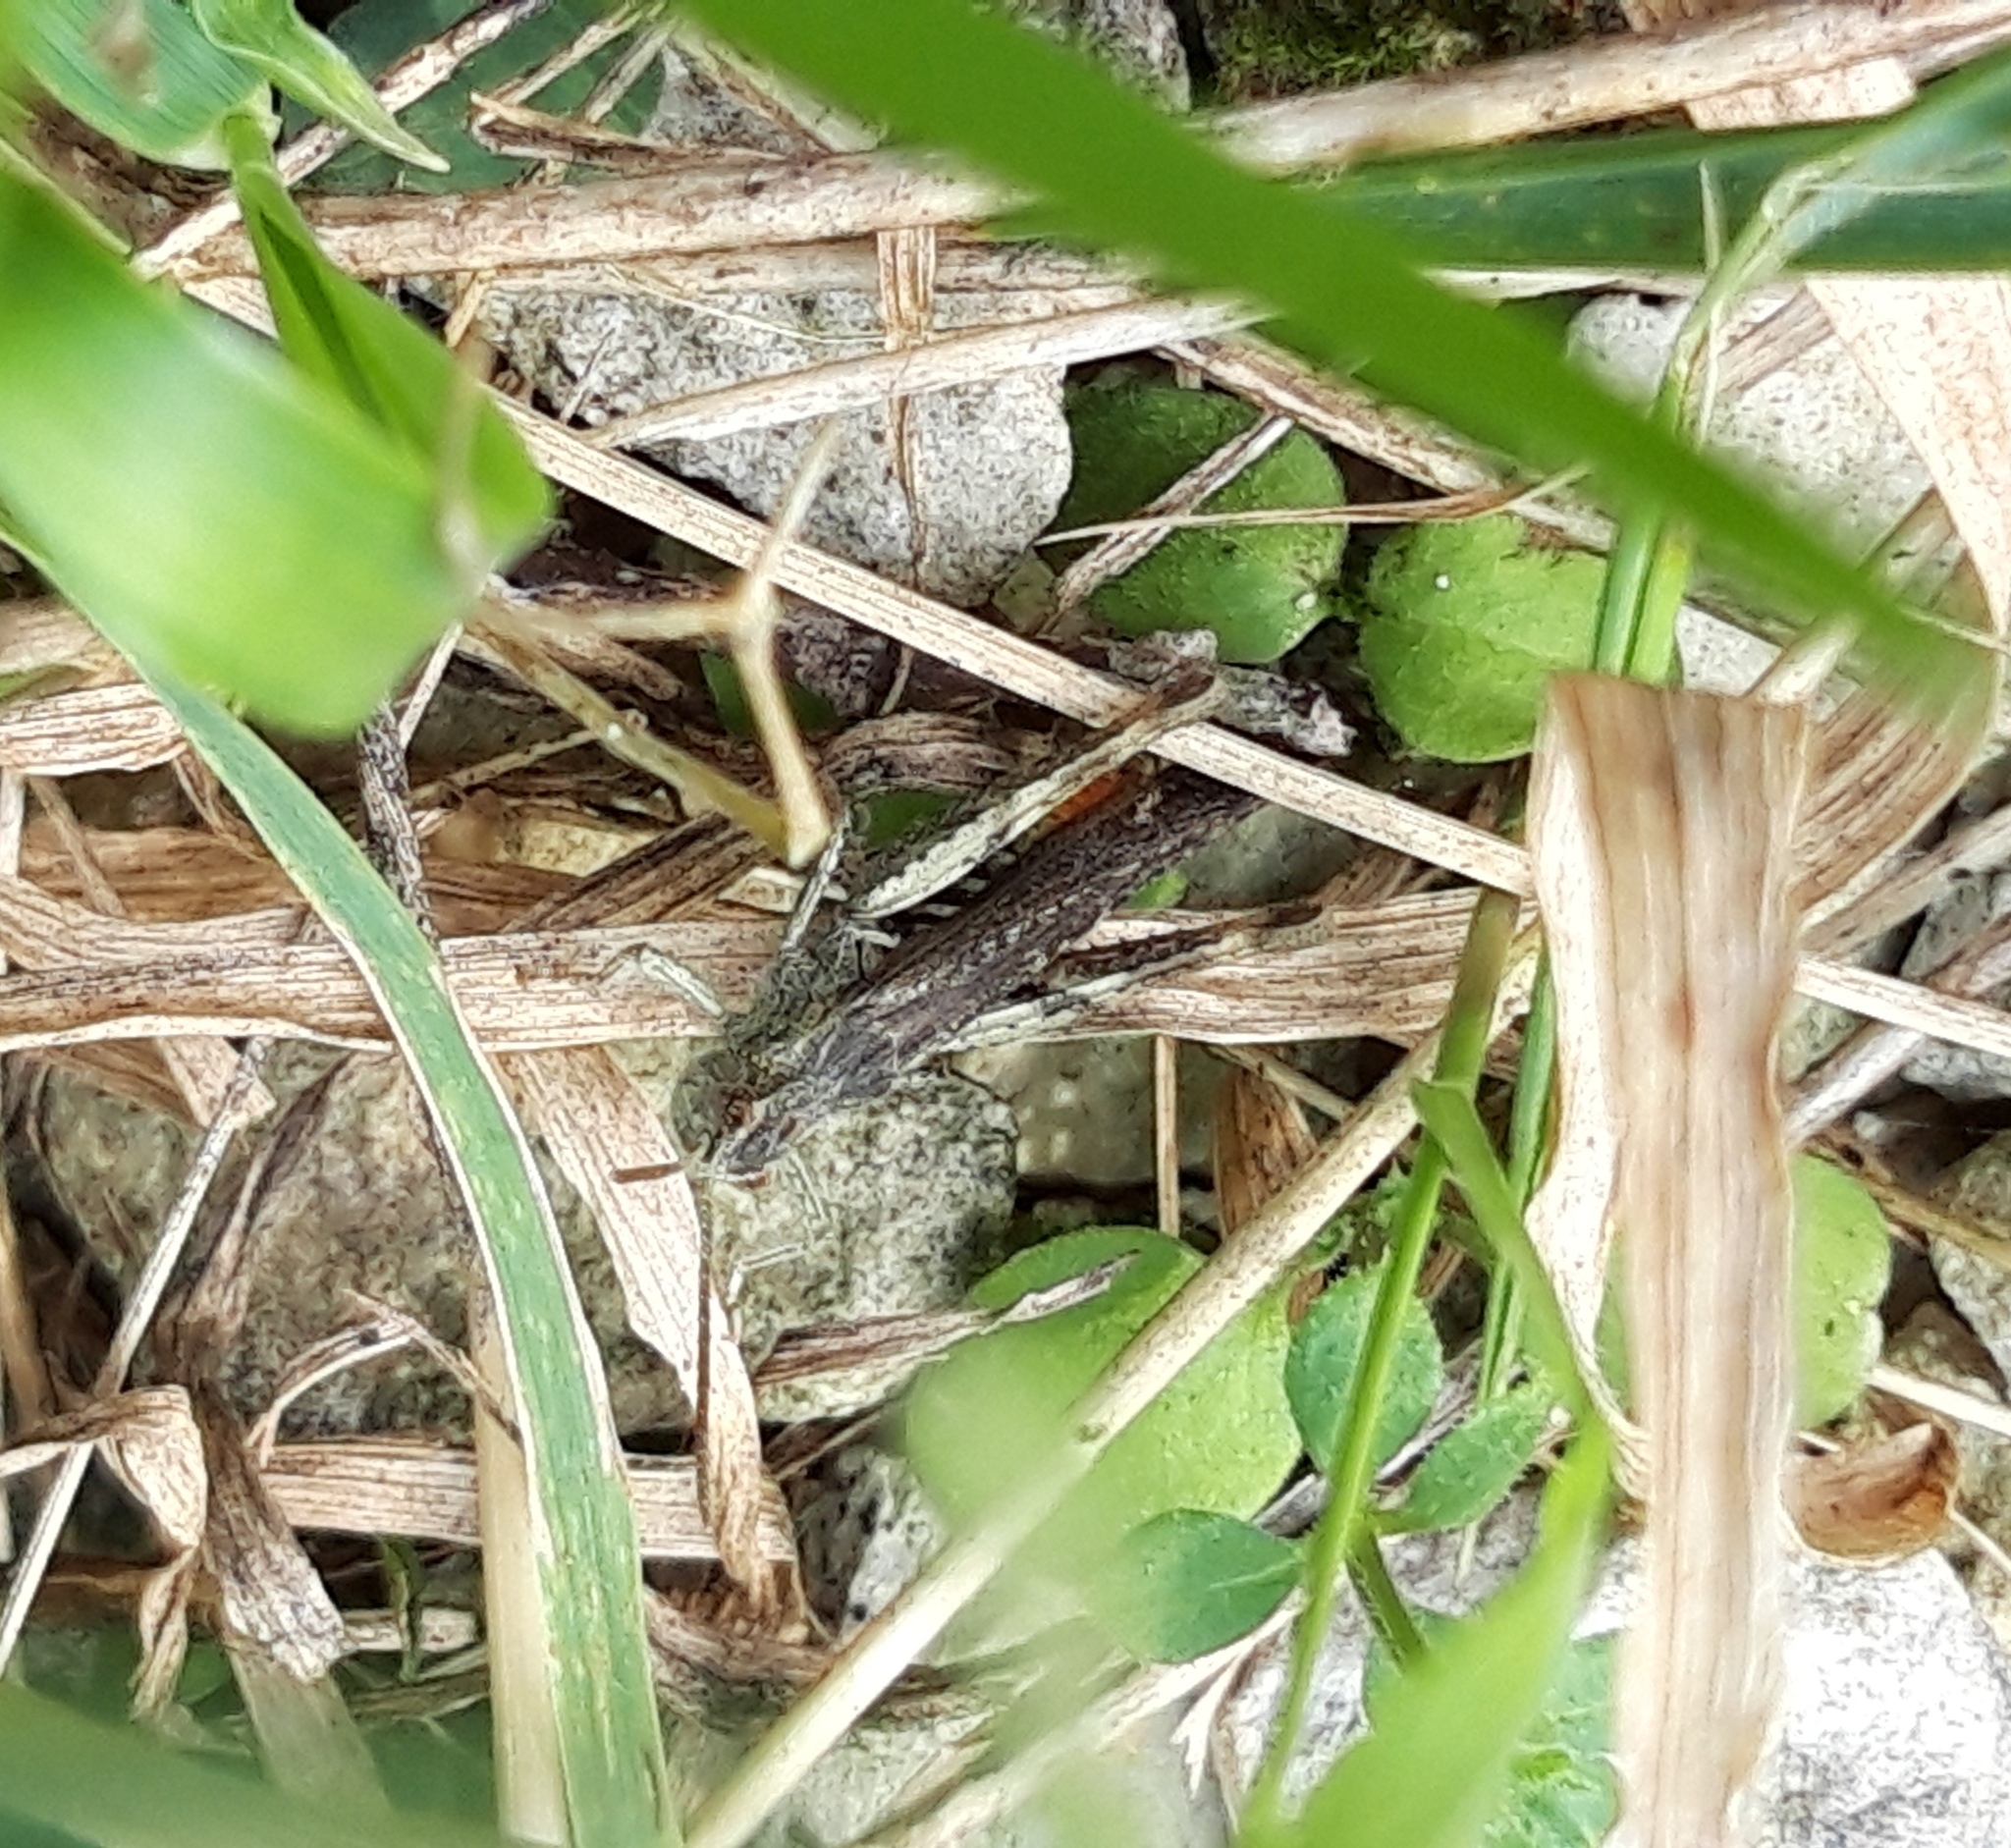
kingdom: Animalia
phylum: Arthropoda
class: Insecta
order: Orthoptera
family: Acrididae
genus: Chorthippus
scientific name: Chorthippus brunneus
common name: Field grasshopper
